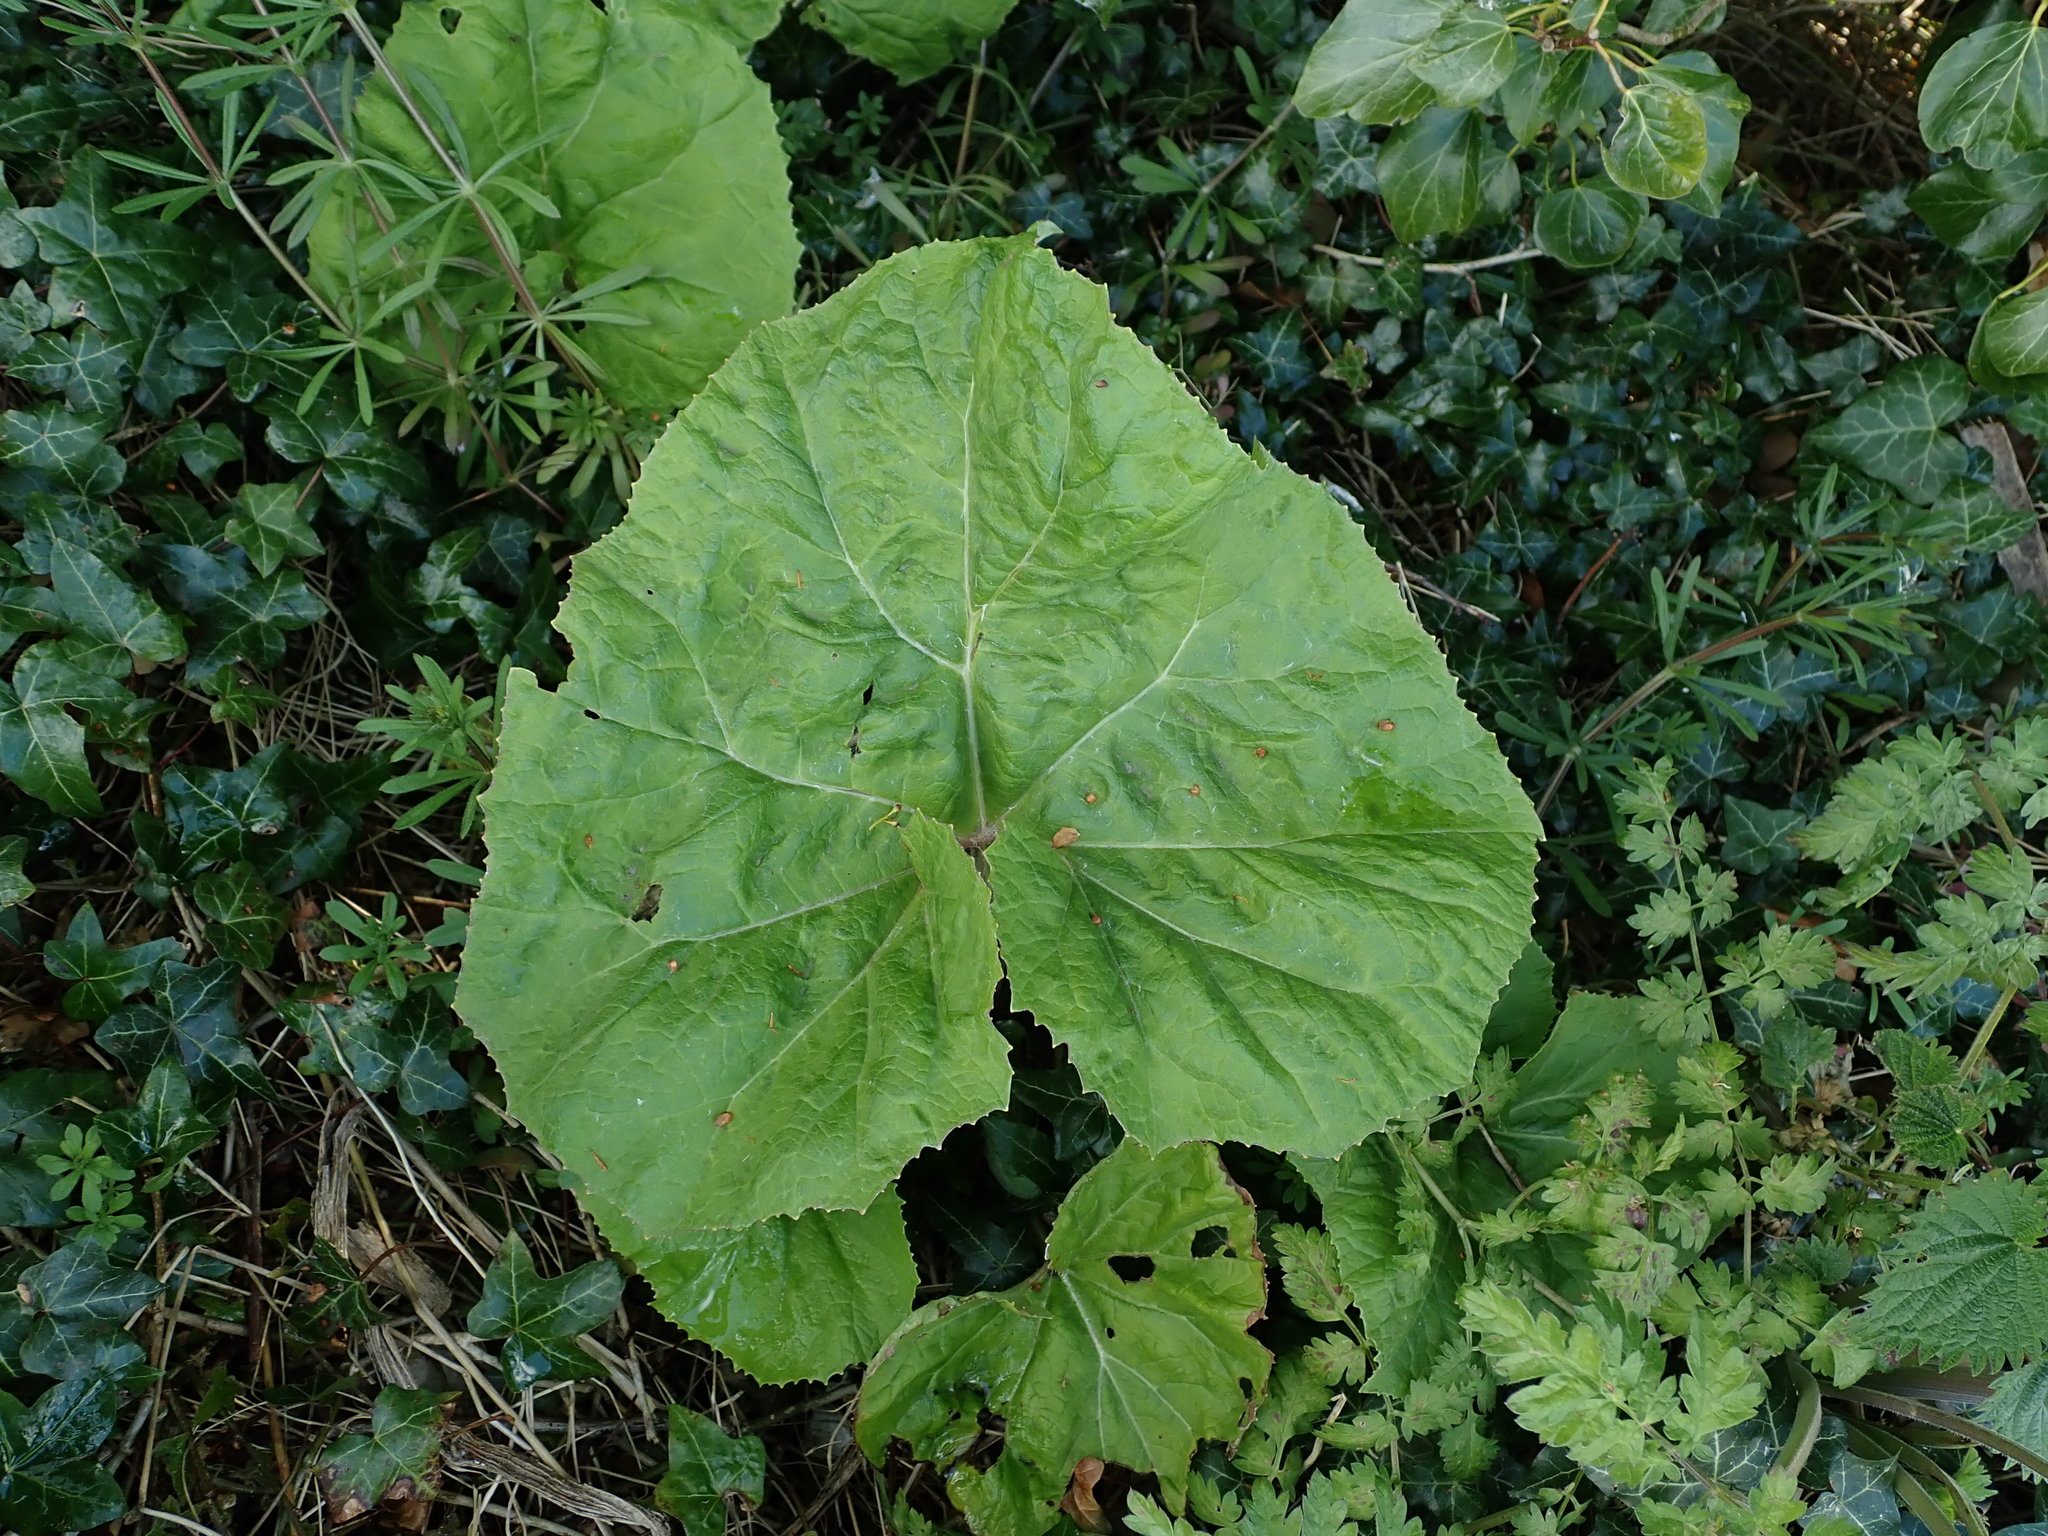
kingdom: Plantae
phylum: Tracheophyta
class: Magnoliopsida
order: Asterales
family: Asteraceae
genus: Petasites
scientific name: Petasites hybridus
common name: Butterbur
